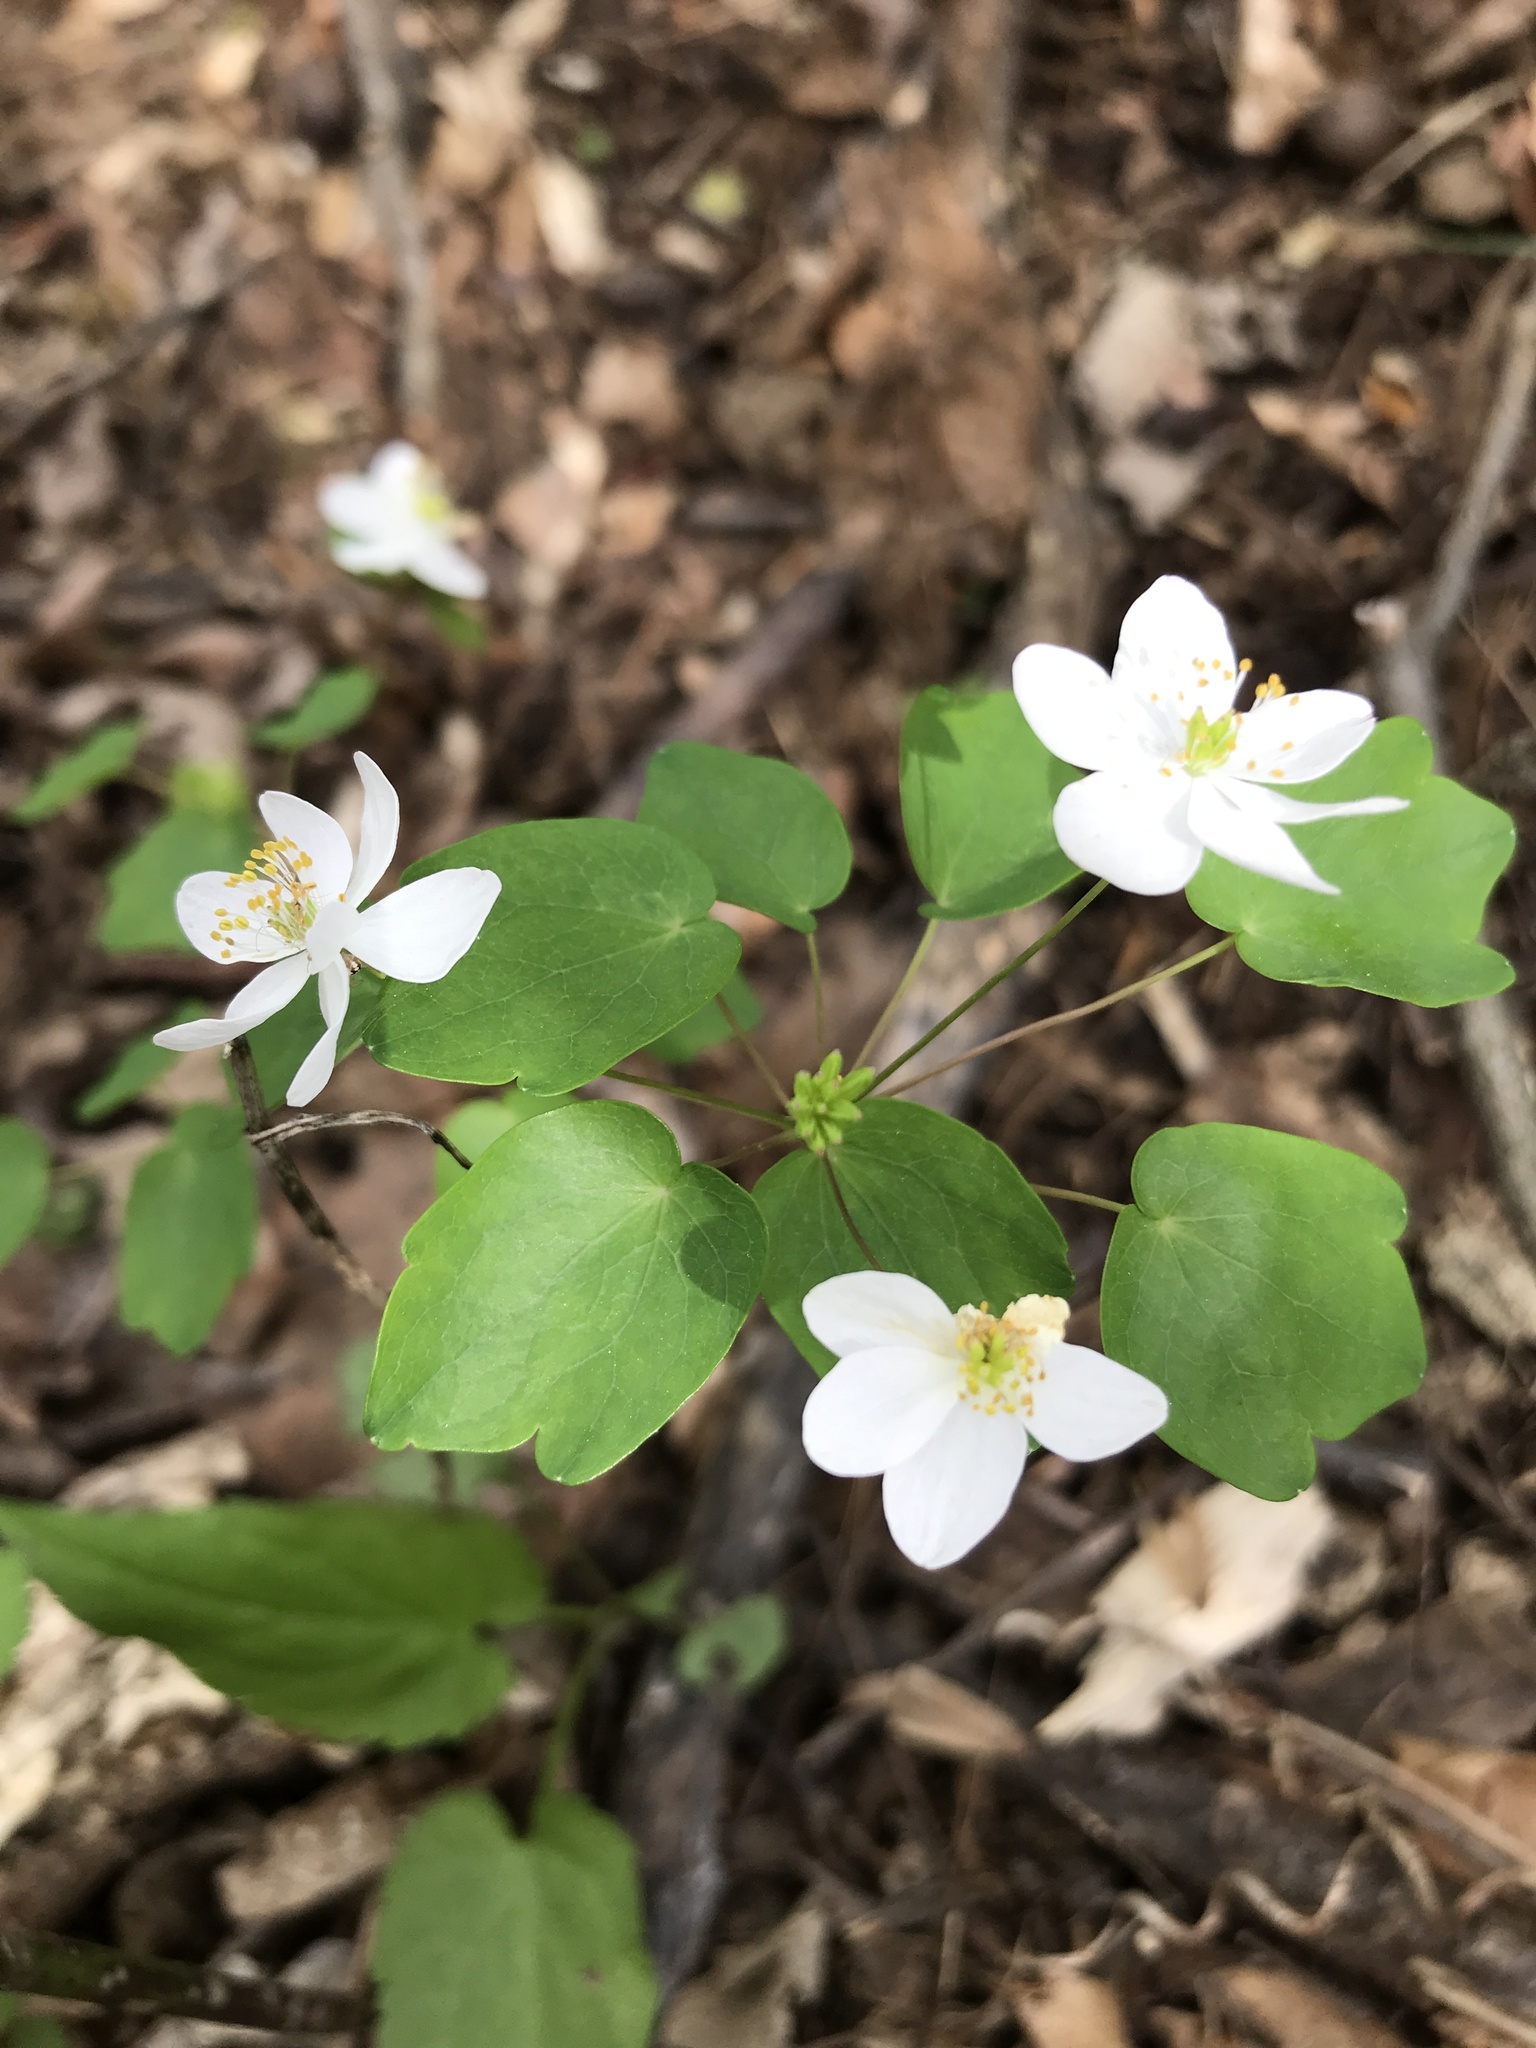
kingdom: Plantae
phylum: Tracheophyta
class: Magnoliopsida
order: Ranunculales
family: Ranunculaceae
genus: Thalictrum
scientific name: Thalictrum thalictroides
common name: Rue-anemone
